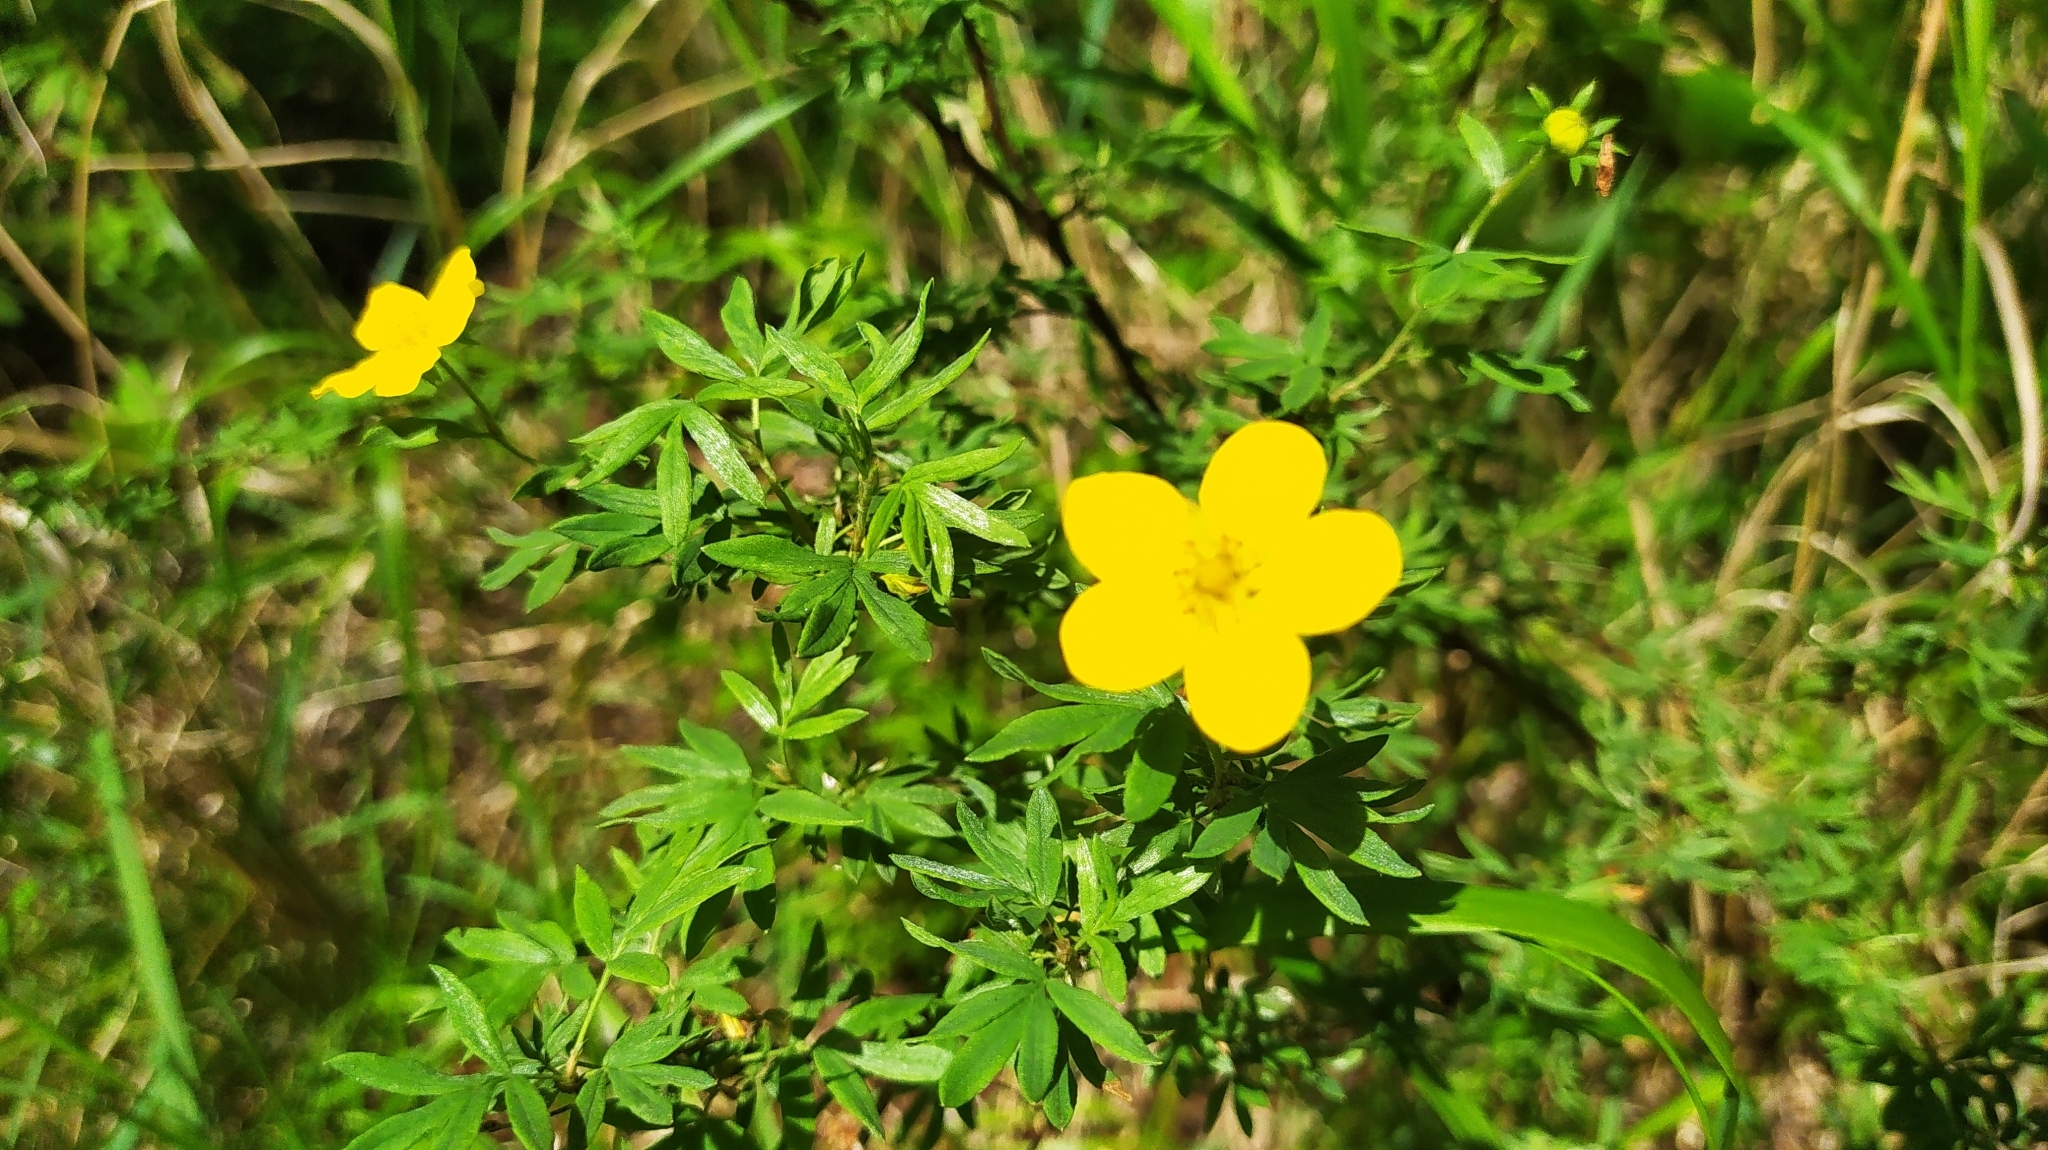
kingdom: Plantae
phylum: Tracheophyta
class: Magnoliopsida
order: Rosales
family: Rosaceae
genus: Dasiphora
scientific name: Dasiphora fruticosa
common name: Shrubby cinquefoil
